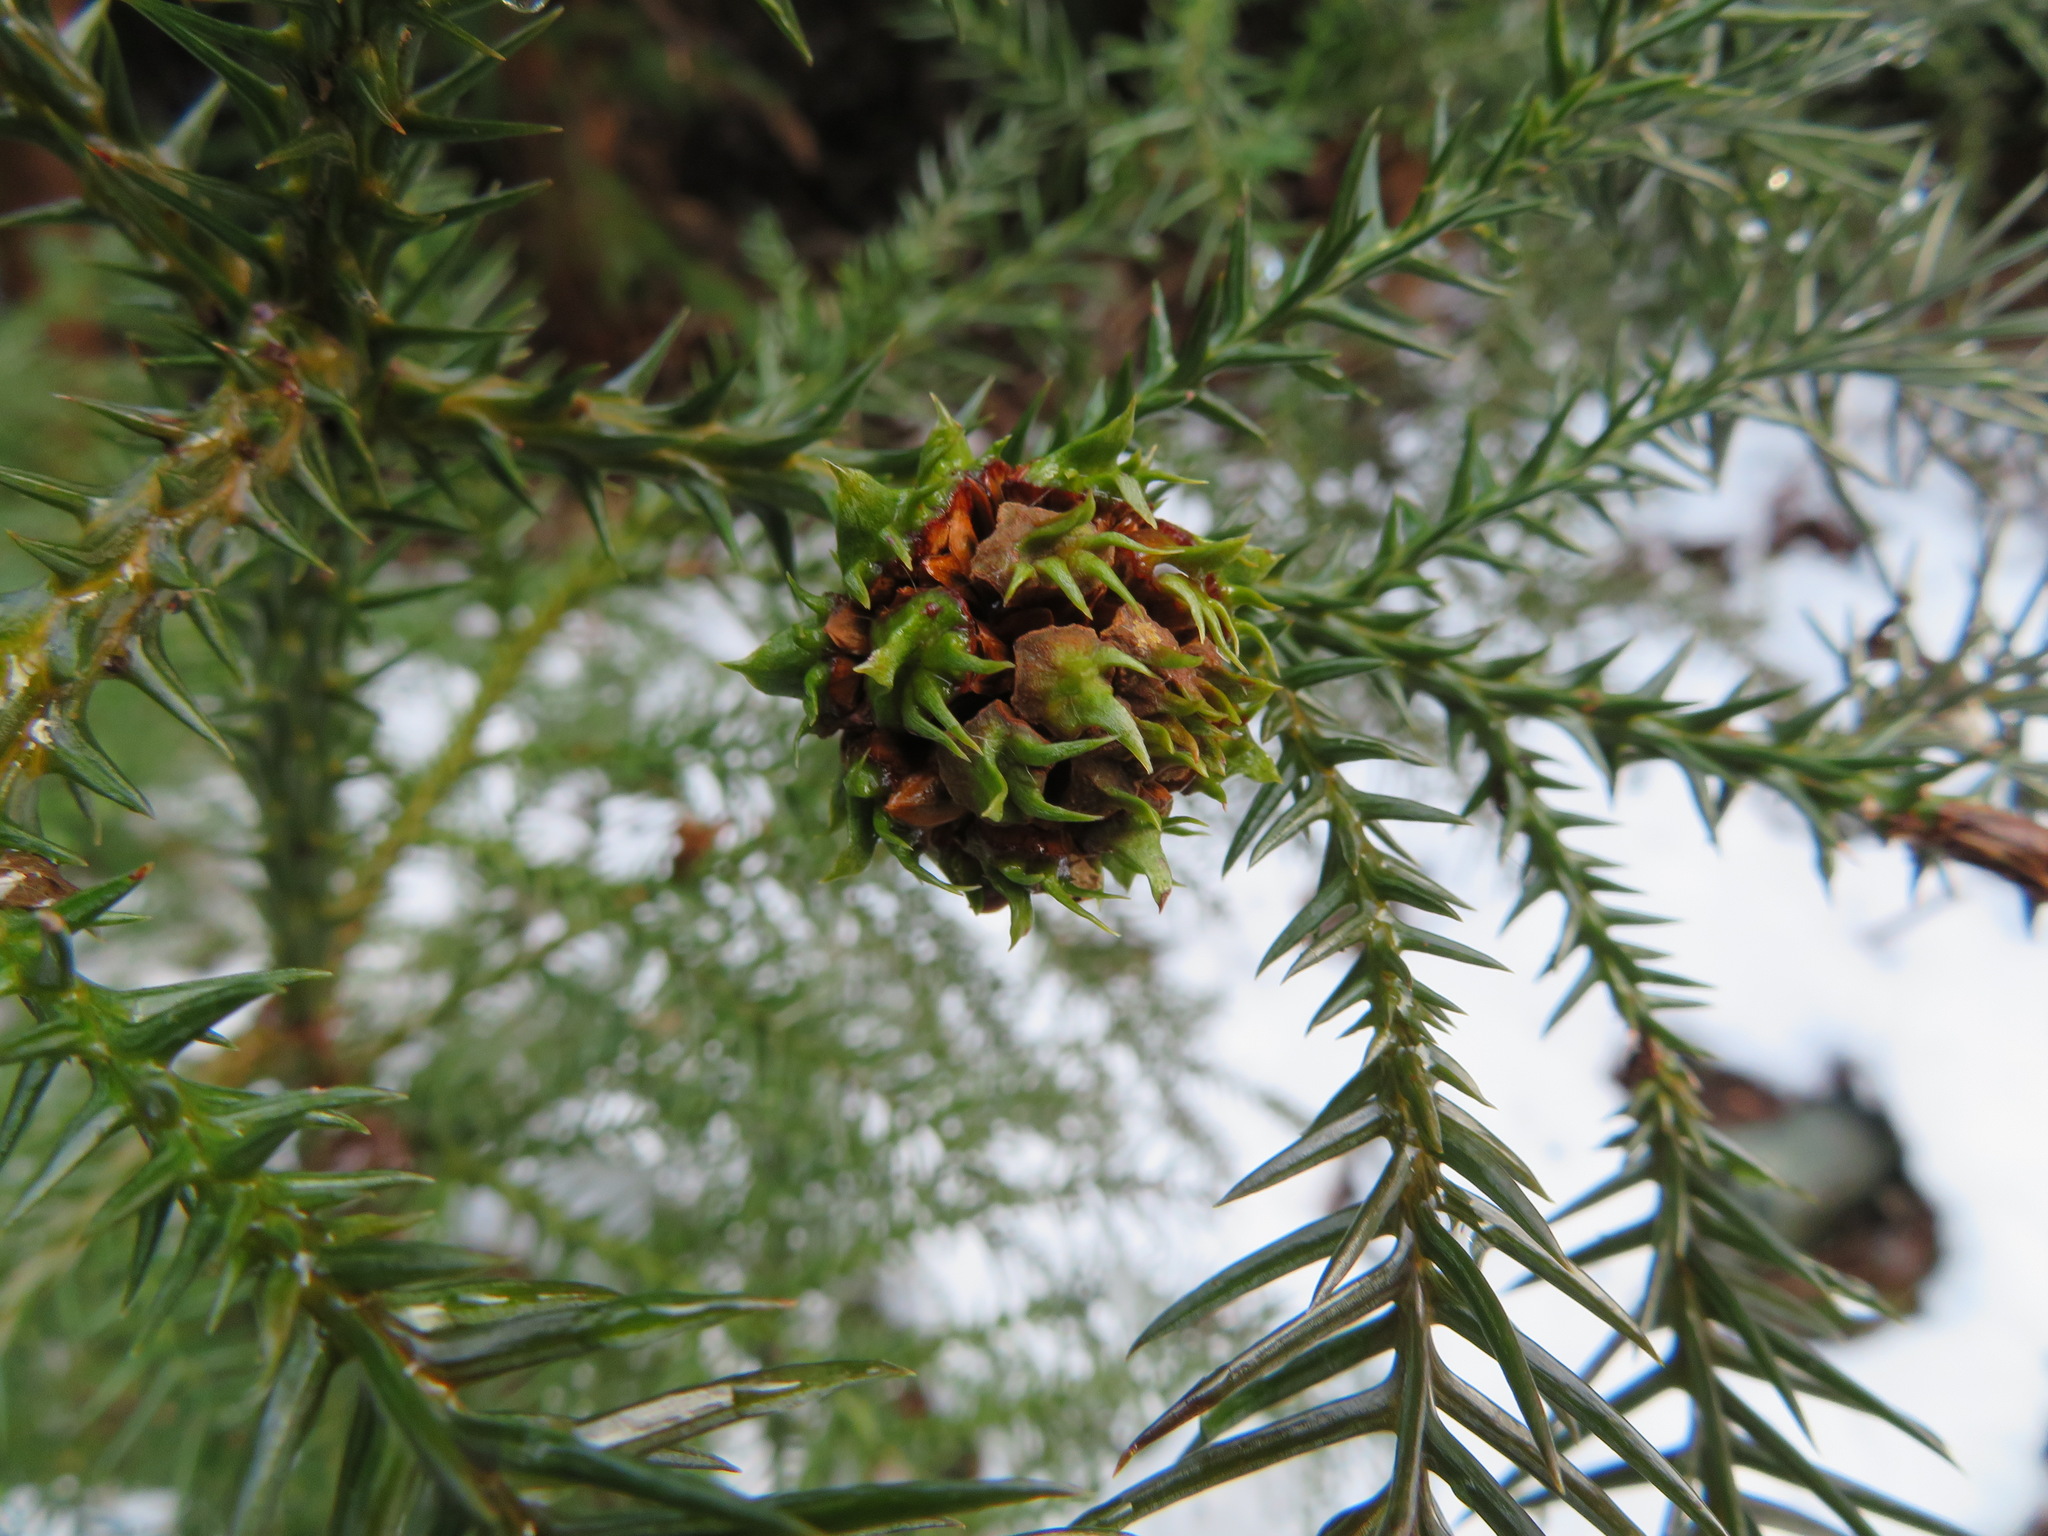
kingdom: Plantae
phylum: Tracheophyta
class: Pinopsida
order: Pinales
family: Cupressaceae
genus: Cryptomeria
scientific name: Cryptomeria japonica
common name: Japanese cedar
